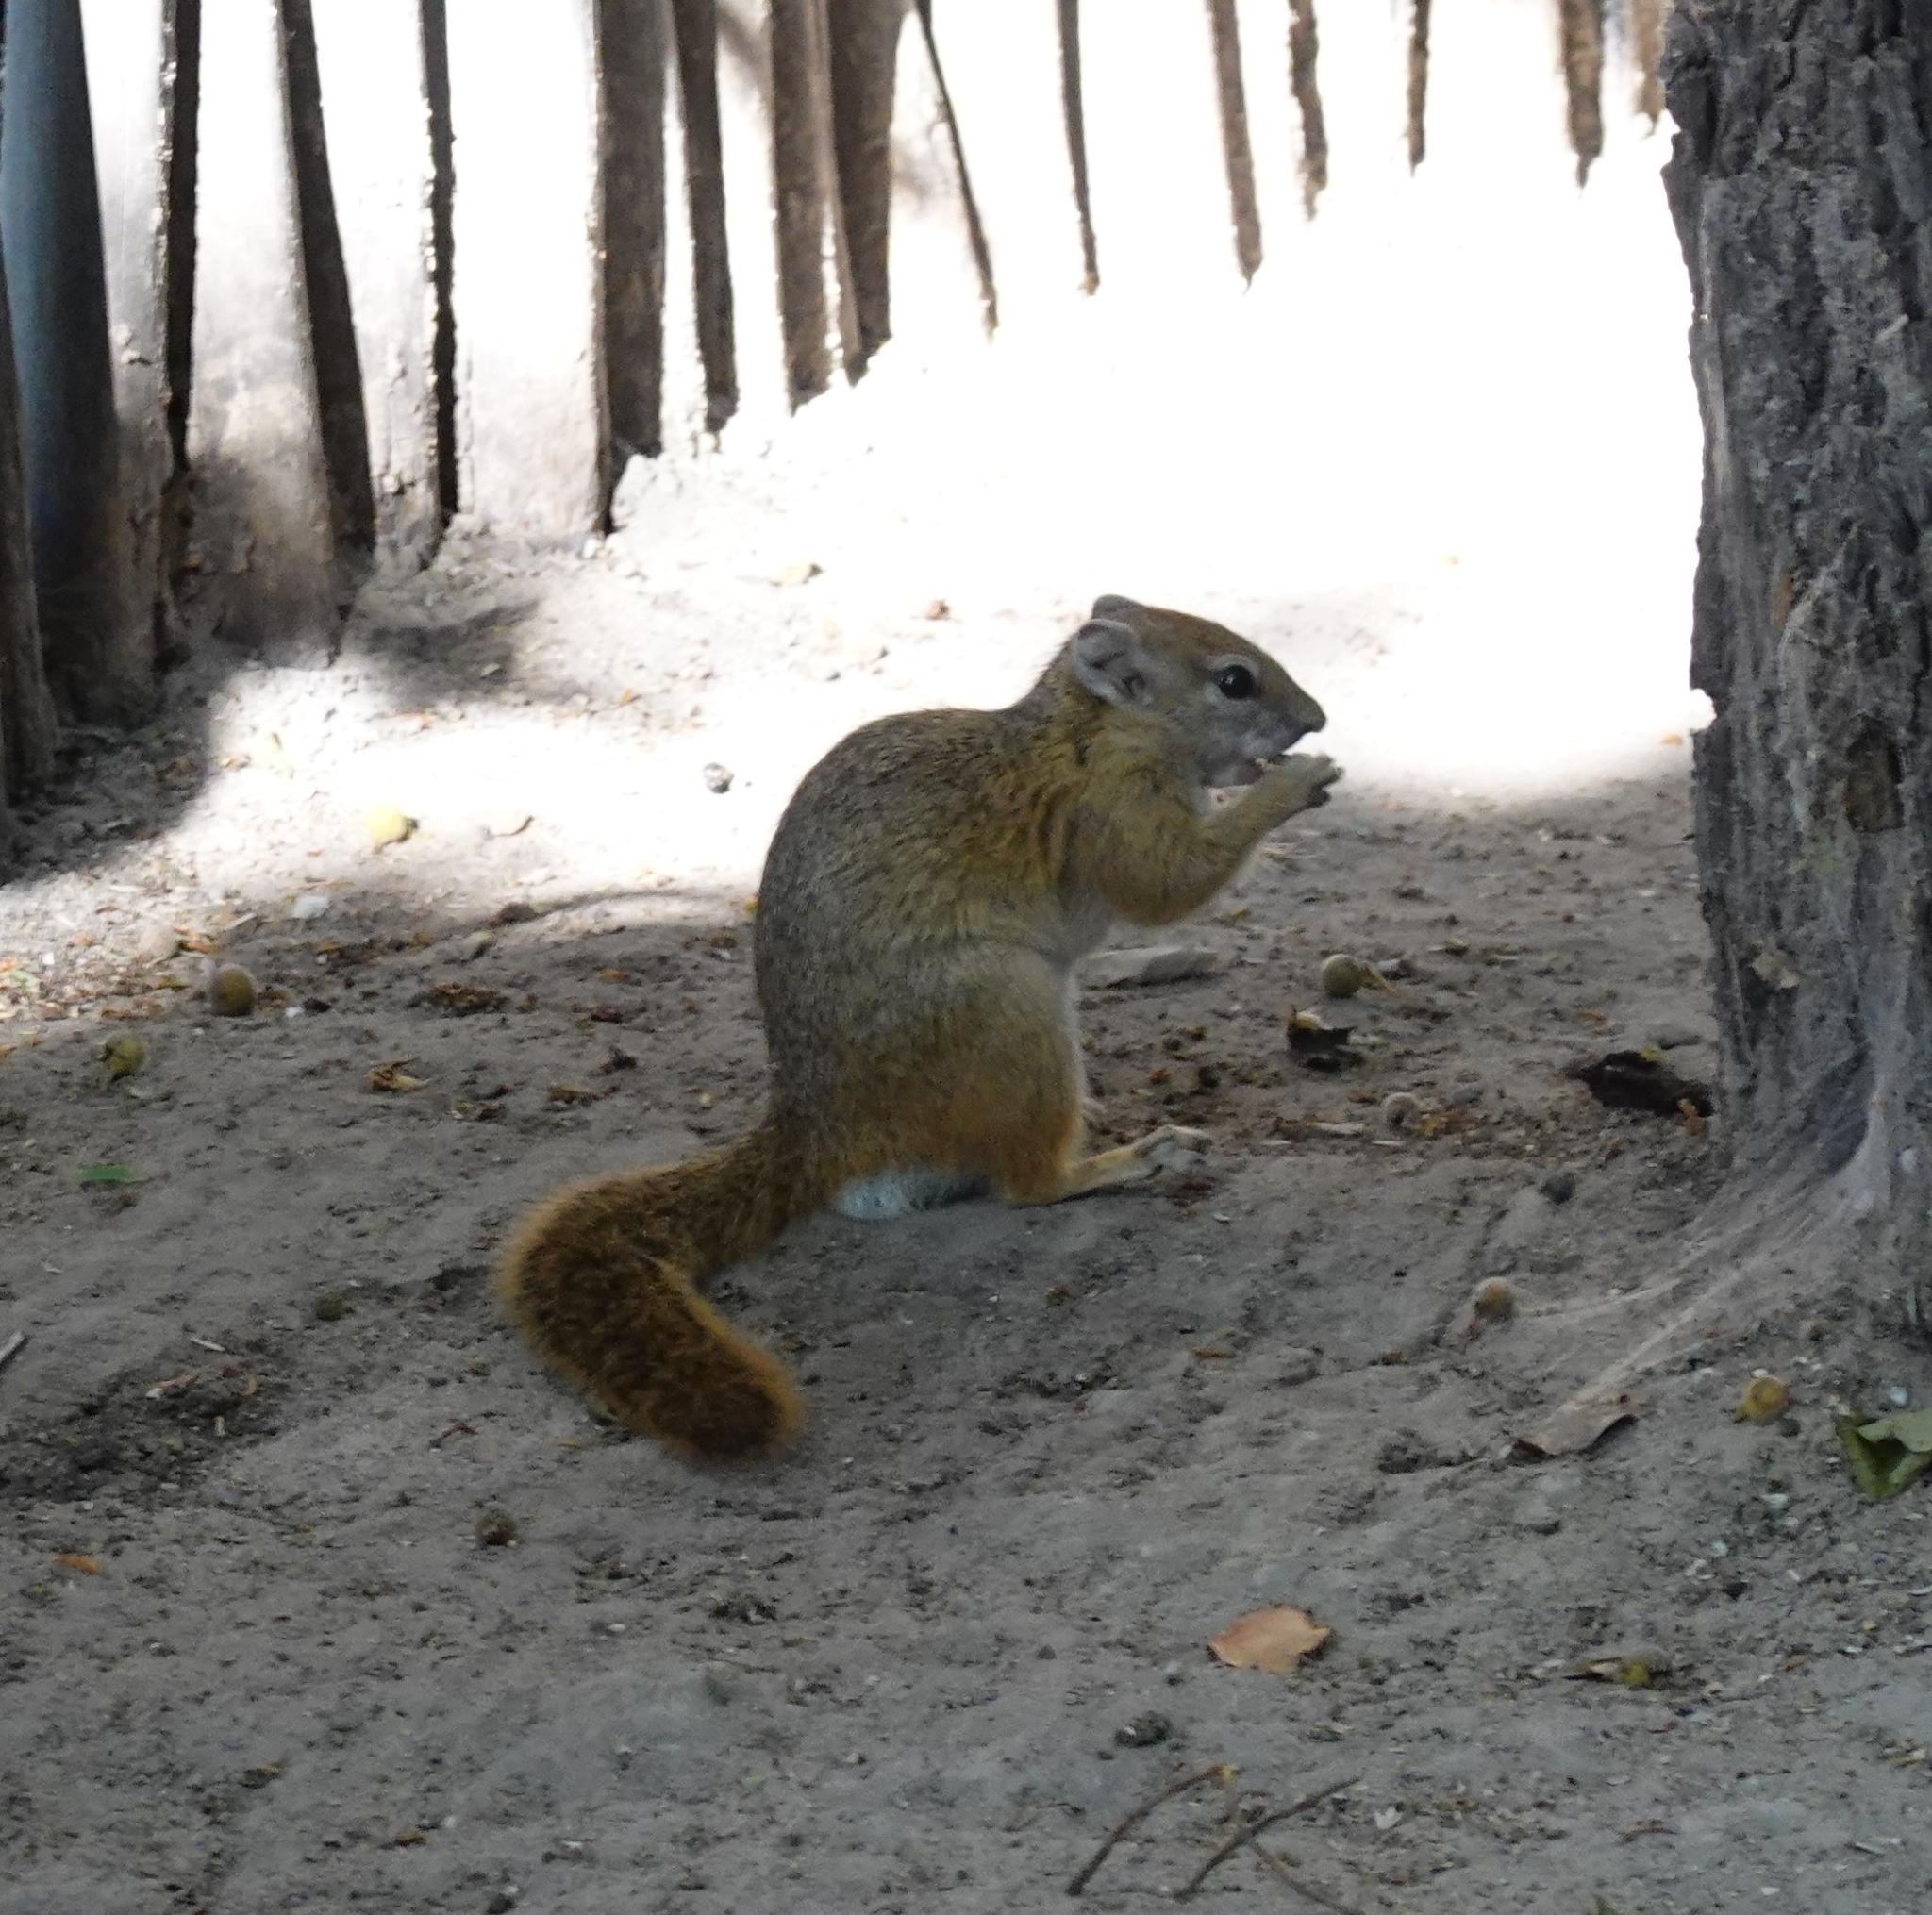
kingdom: Animalia
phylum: Chordata
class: Mammalia
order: Rodentia
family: Sciuridae
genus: Paraxerus
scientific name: Paraxerus cepapi
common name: Smith's bush squirrel
